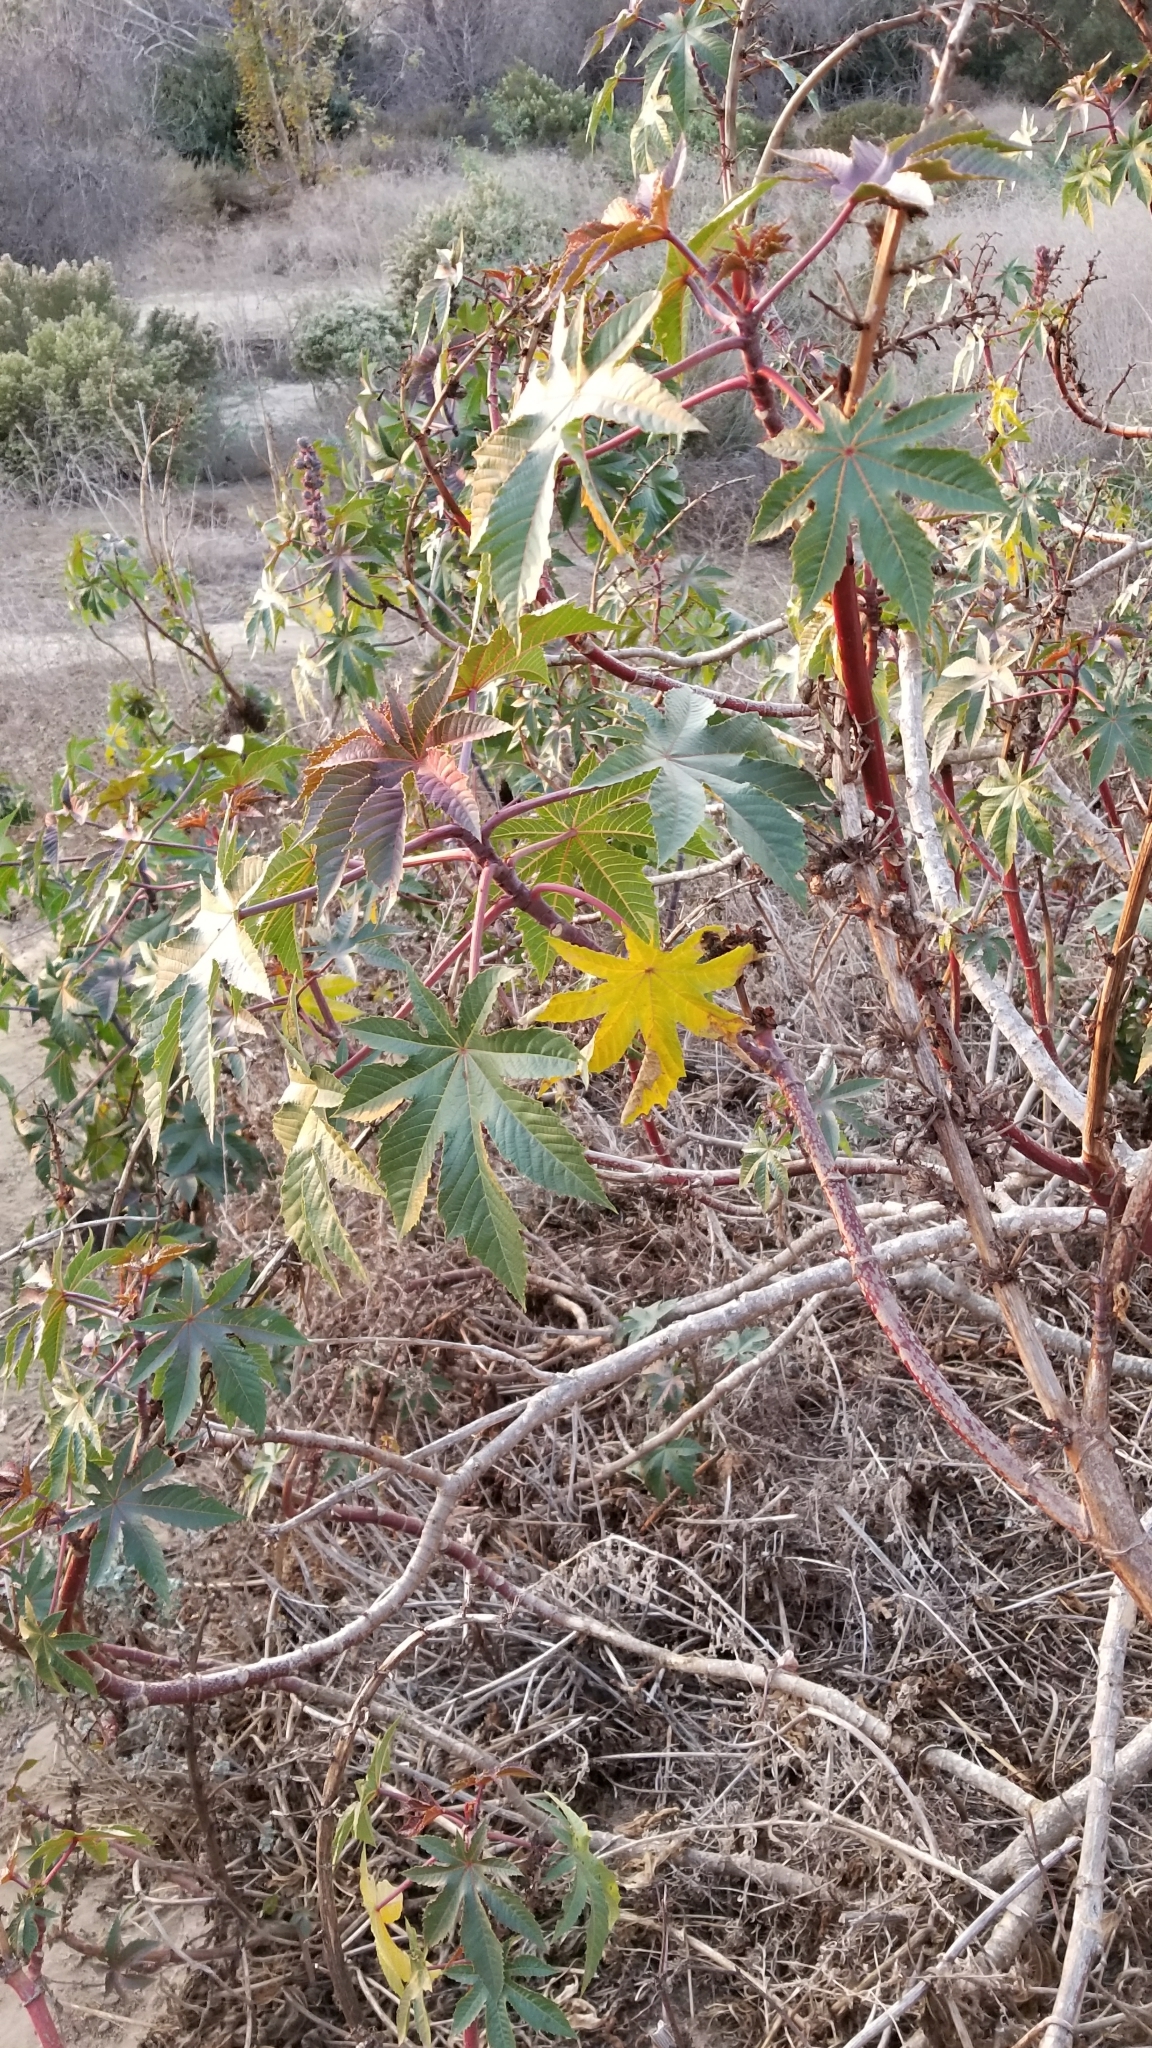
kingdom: Plantae
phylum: Tracheophyta
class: Magnoliopsida
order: Malpighiales
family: Euphorbiaceae
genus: Ricinus
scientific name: Ricinus communis
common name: Castor-oil-plant
